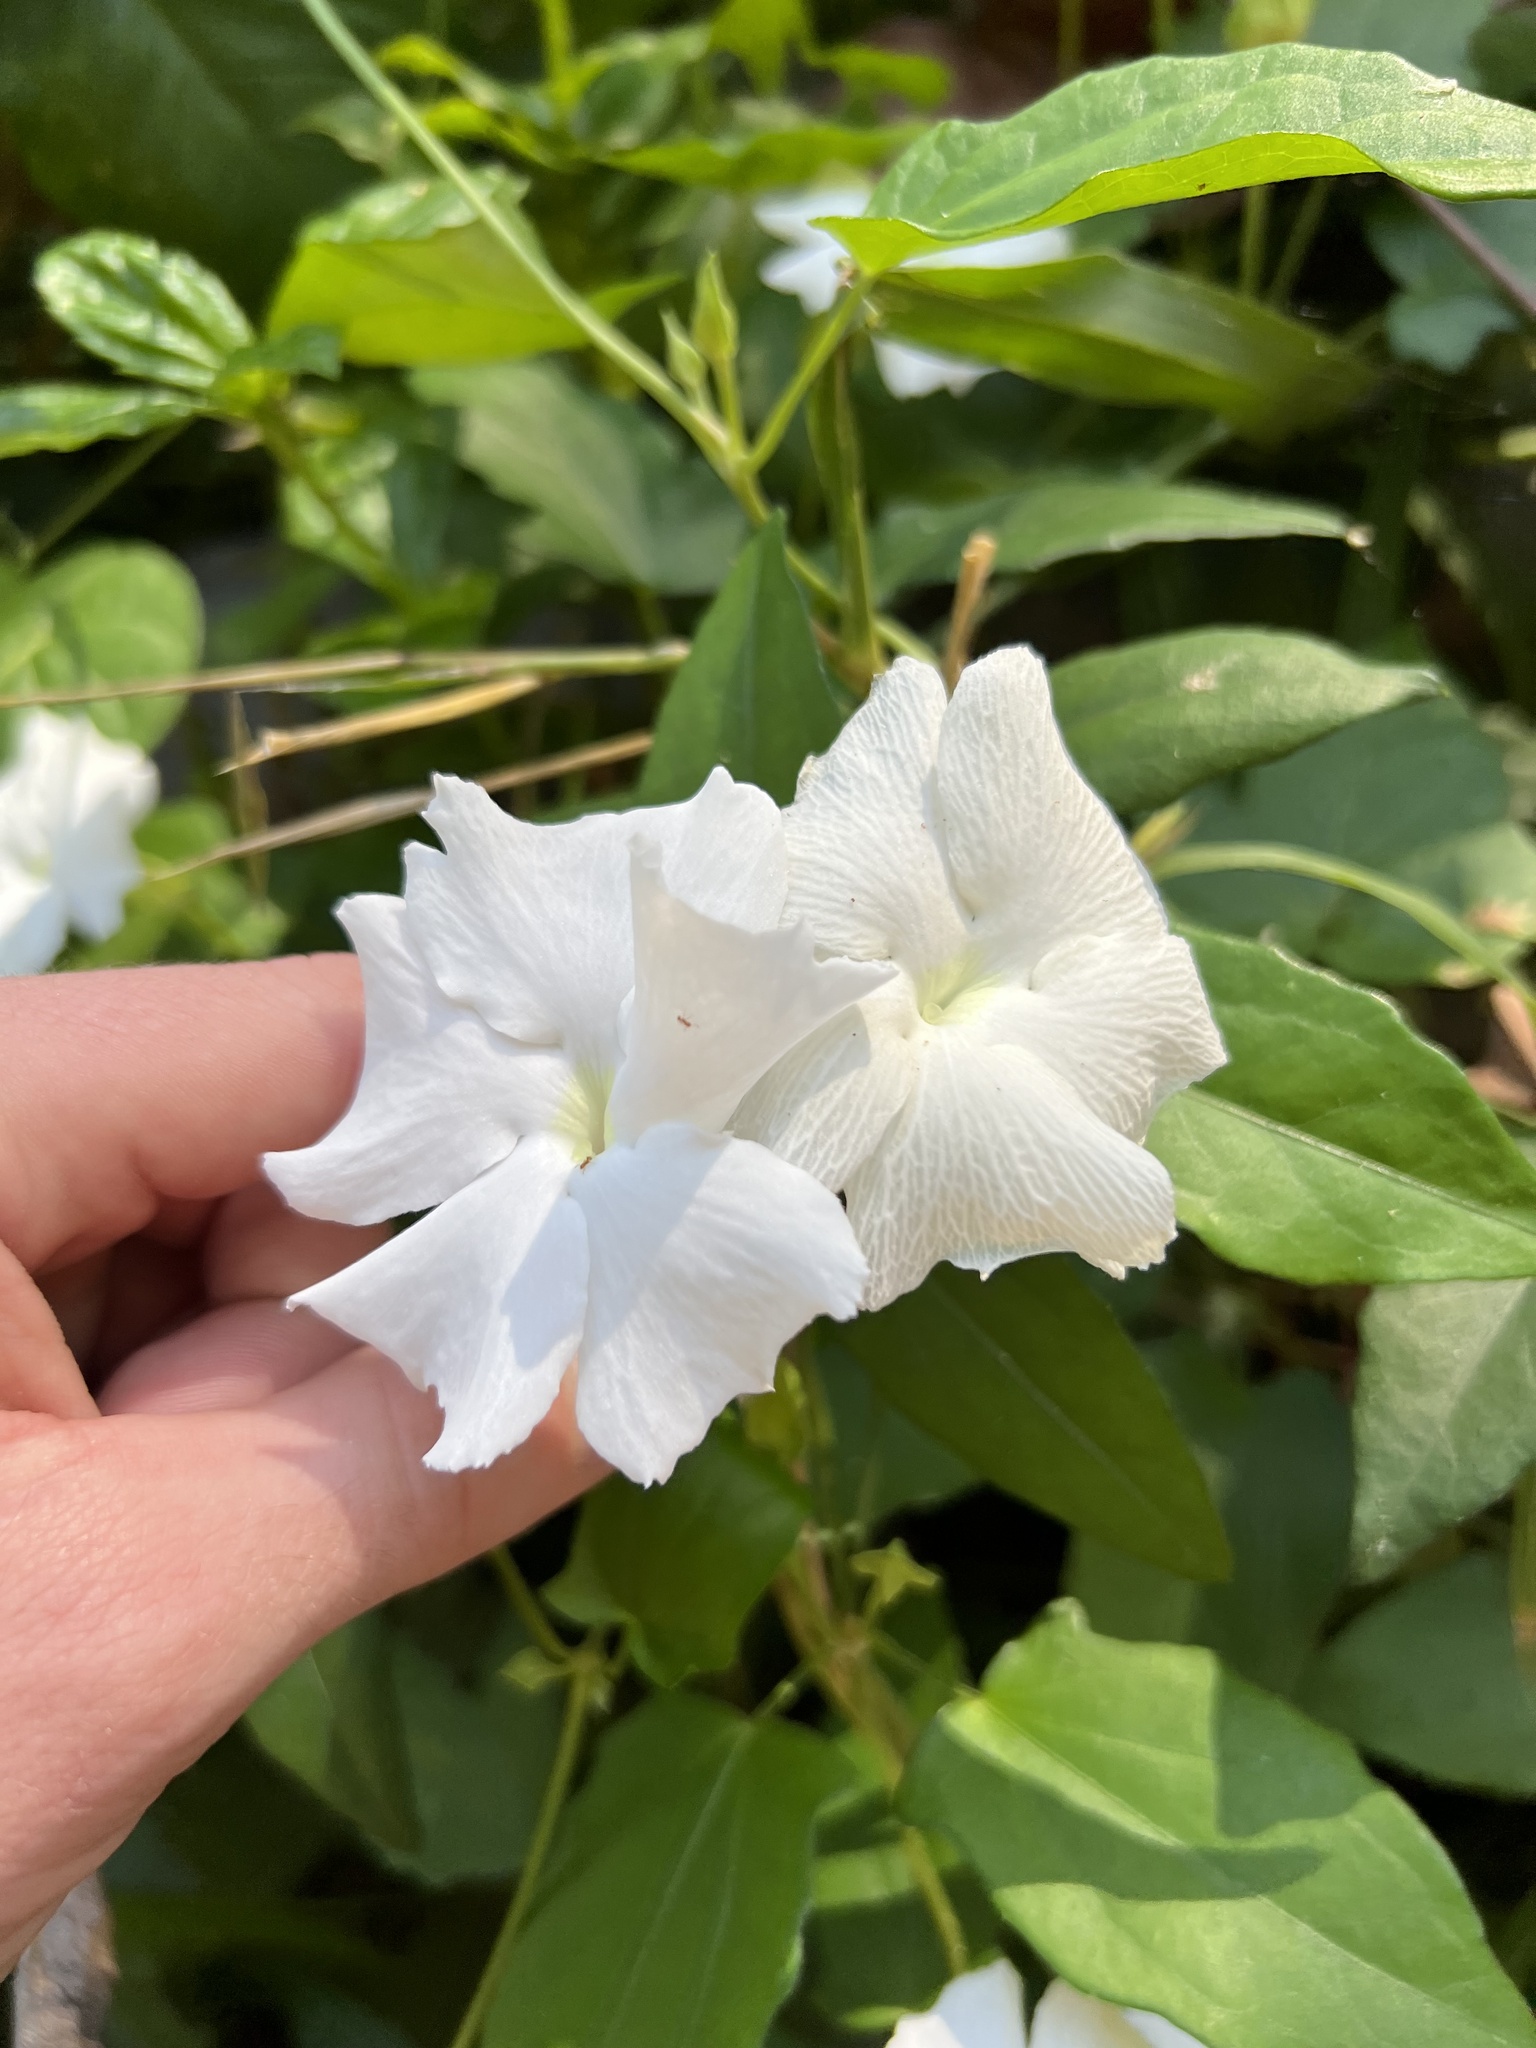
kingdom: Plantae
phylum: Tracheophyta
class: Magnoliopsida
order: Lamiales
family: Acanthaceae
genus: Thunbergia
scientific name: Thunbergia fragrans
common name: Whitelady
